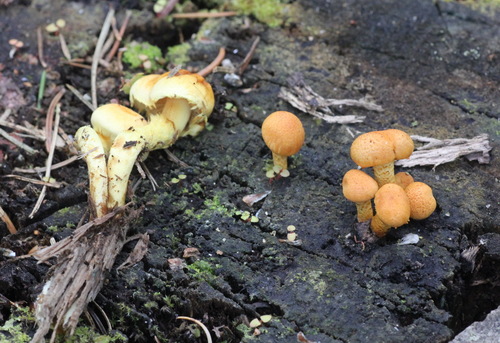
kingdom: Fungi
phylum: Basidiomycota
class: Agaricomycetes
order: Agaricales
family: Strophariaceae
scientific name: Strophariaceae
